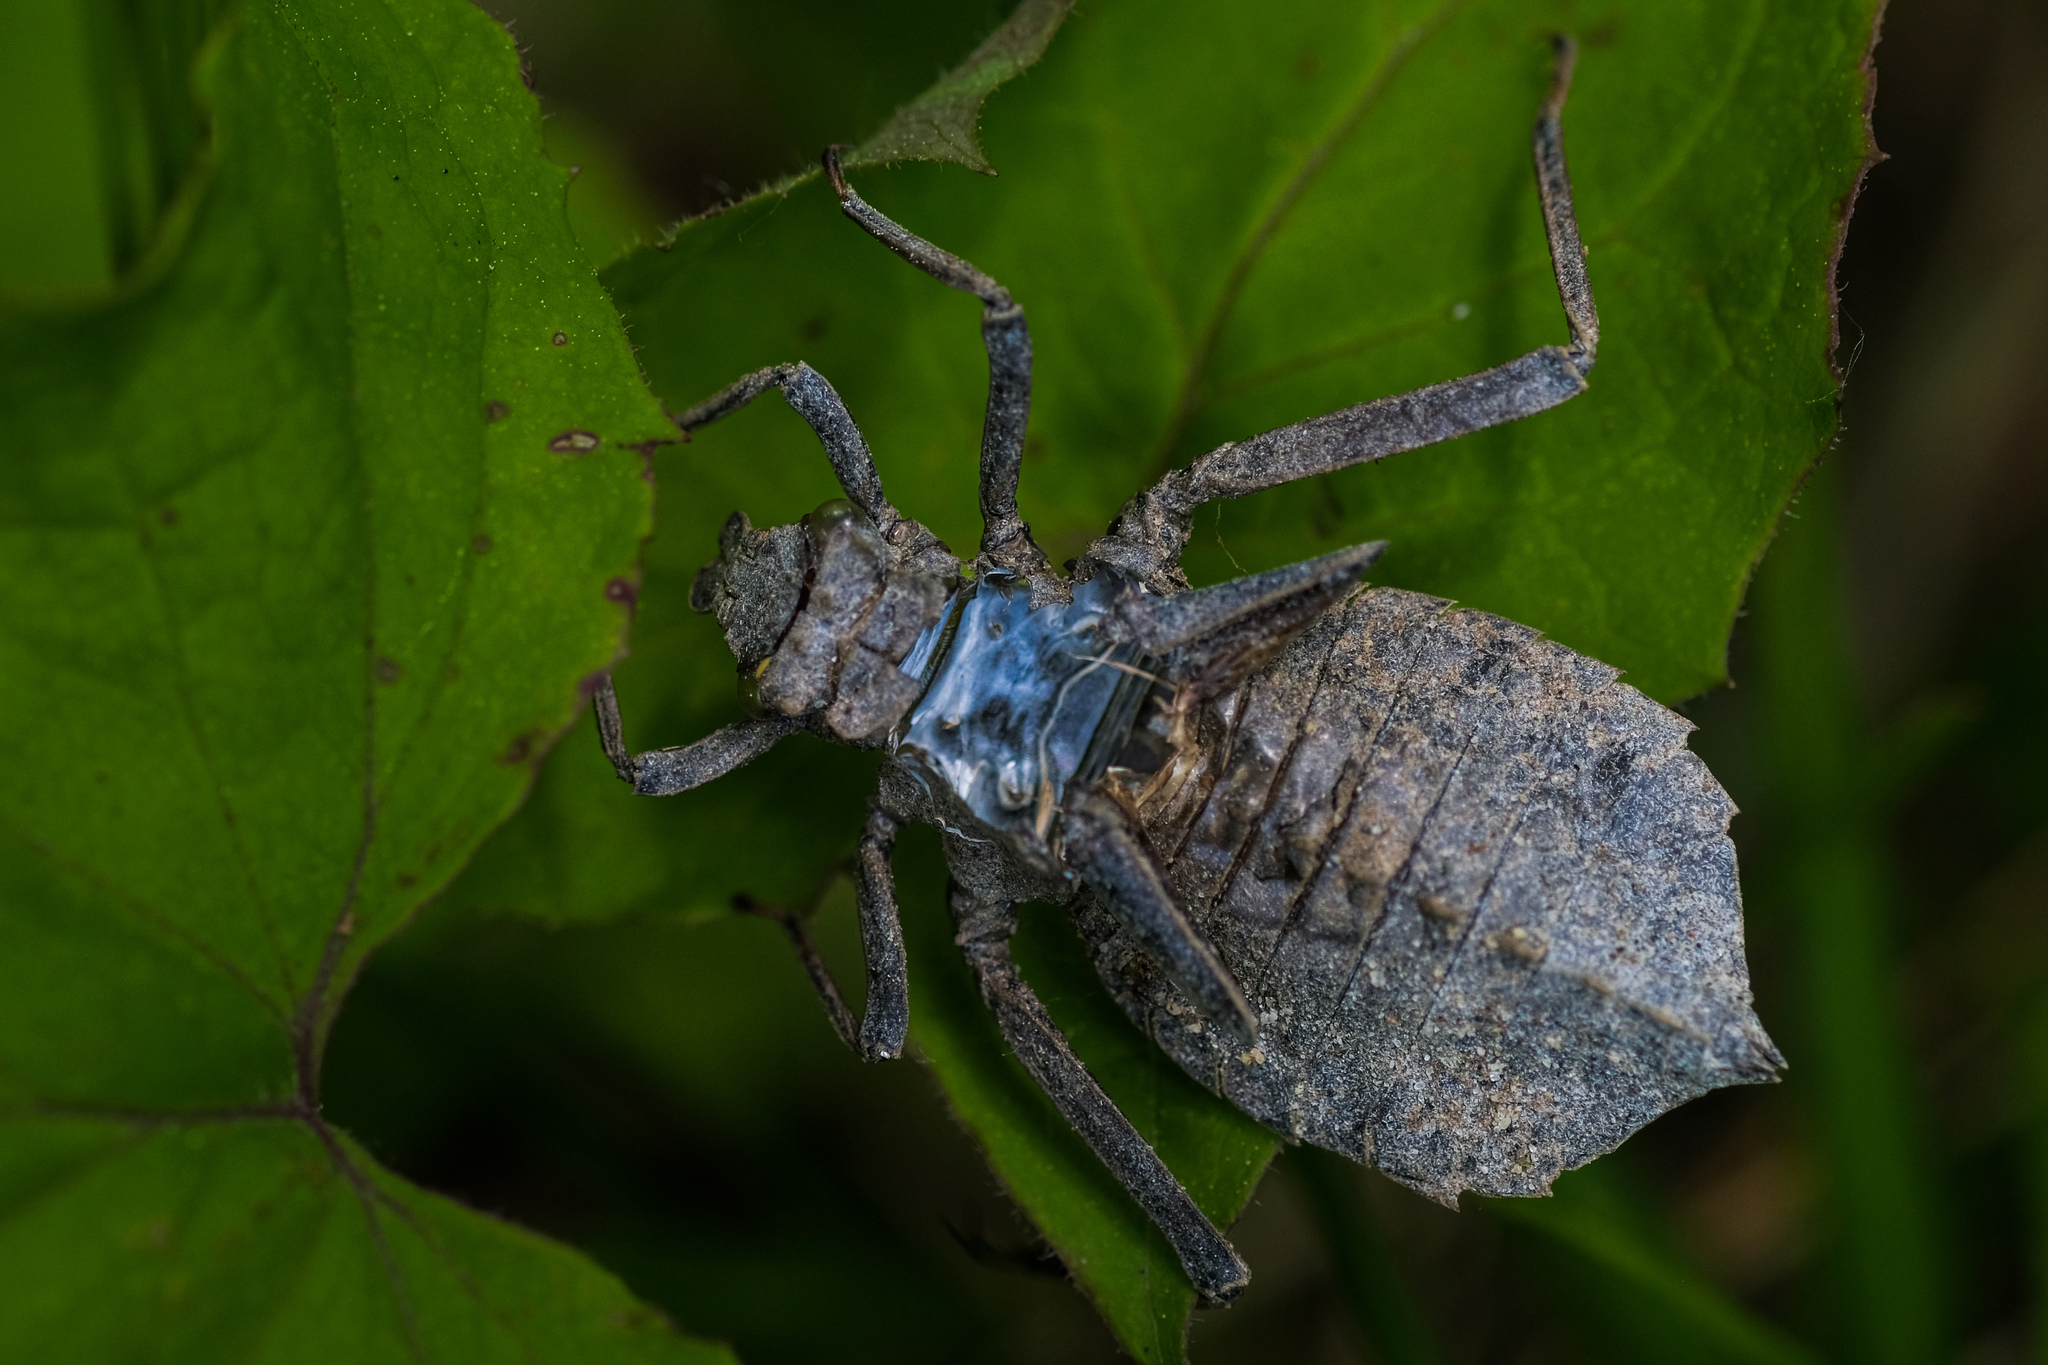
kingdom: Animalia
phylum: Arthropoda
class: Insecta
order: Odonata
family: Gomphidae
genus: Hagenius
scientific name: Hagenius brevistylus
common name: Dragonhunter
